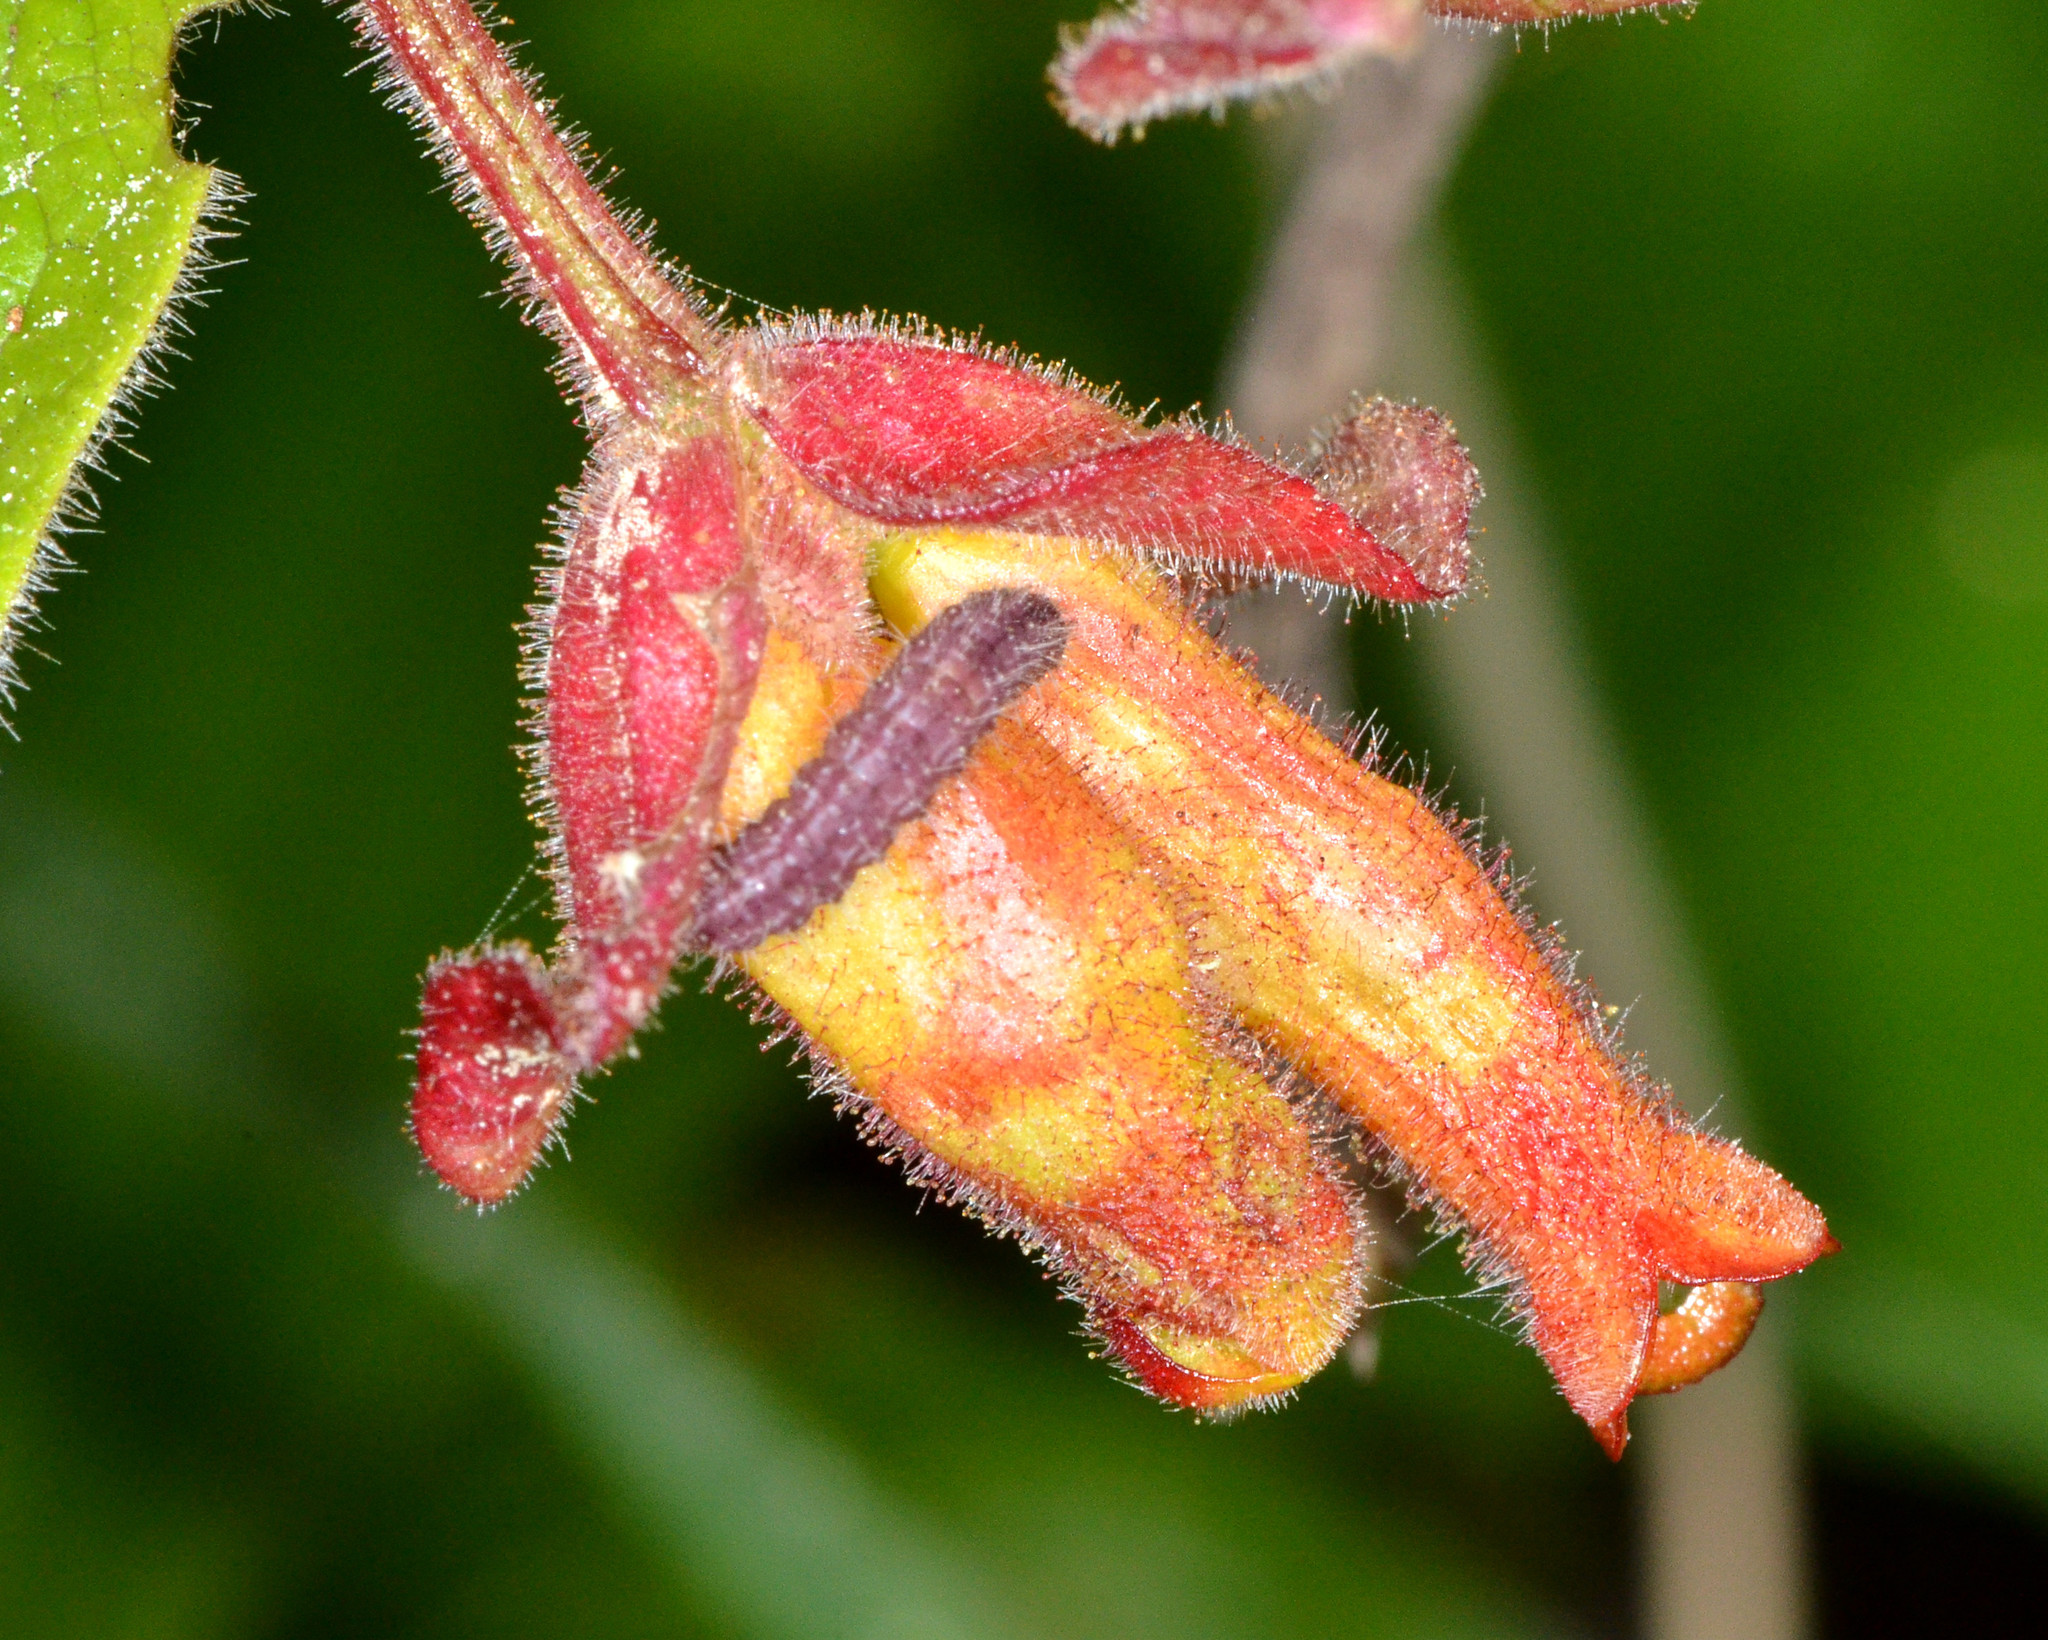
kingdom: Plantae
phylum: Tracheophyta
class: Magnoliopsida
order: Dipsacales
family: Caprifoliaceae
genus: Lonicera
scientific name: Lonicera involucrata
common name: Californian honeysuckle
